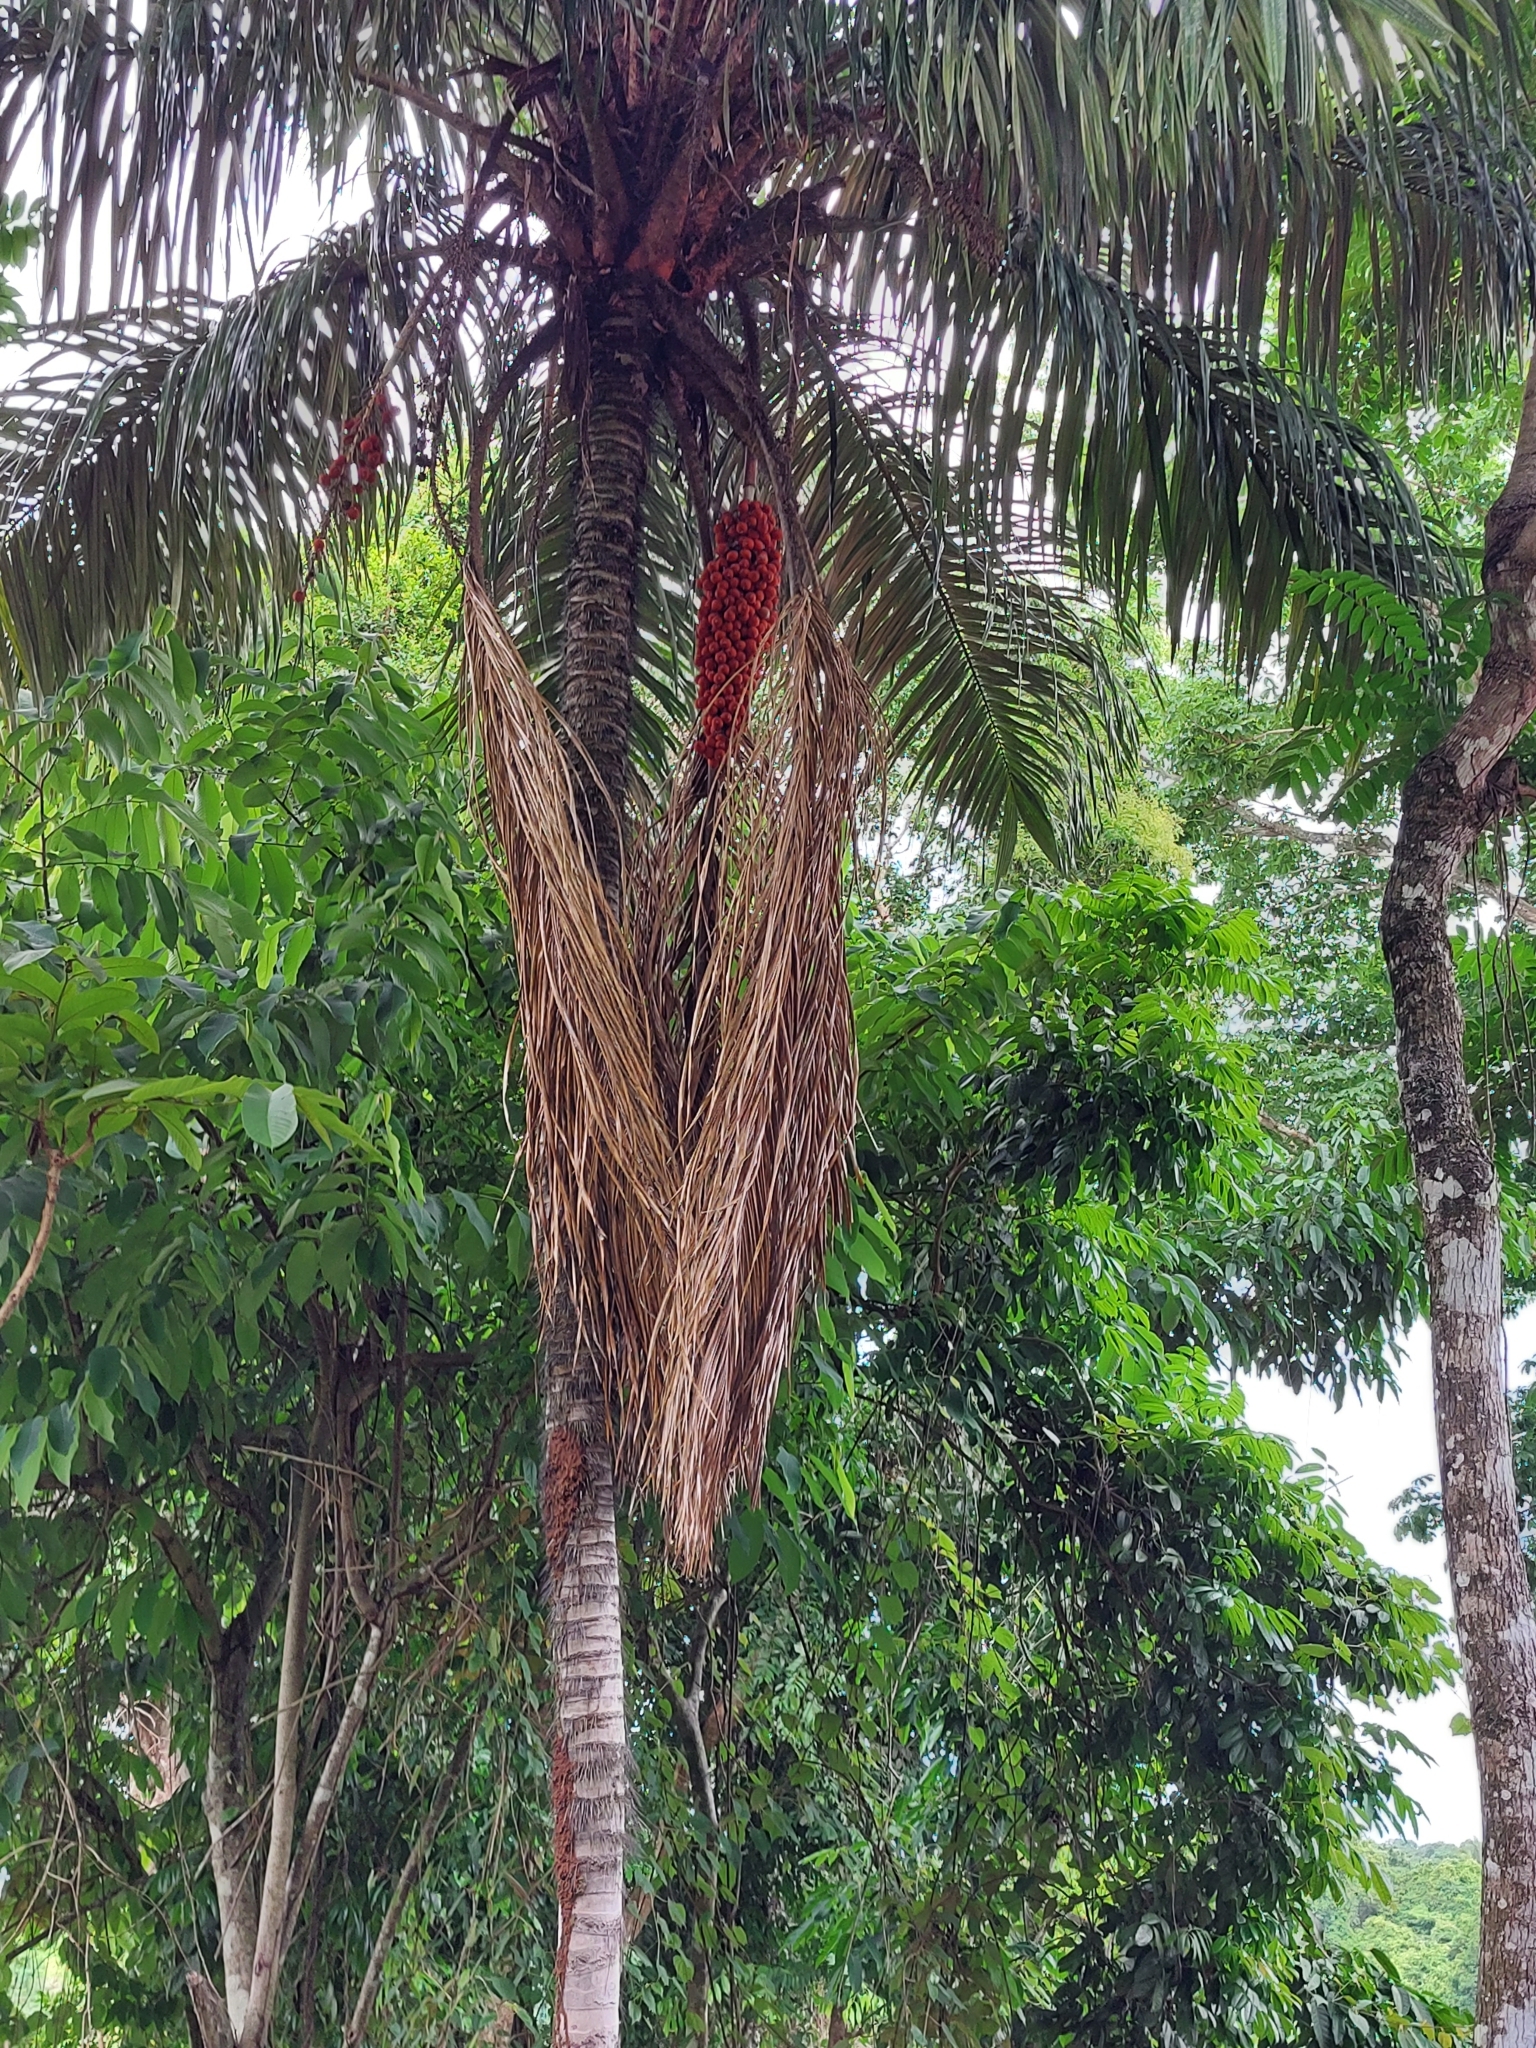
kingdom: Plantae
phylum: Tracheophyta
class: Liliopsida
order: Arecales
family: Arecaceae
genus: Astrocaryum
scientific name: Astrocaryum standleyanum
